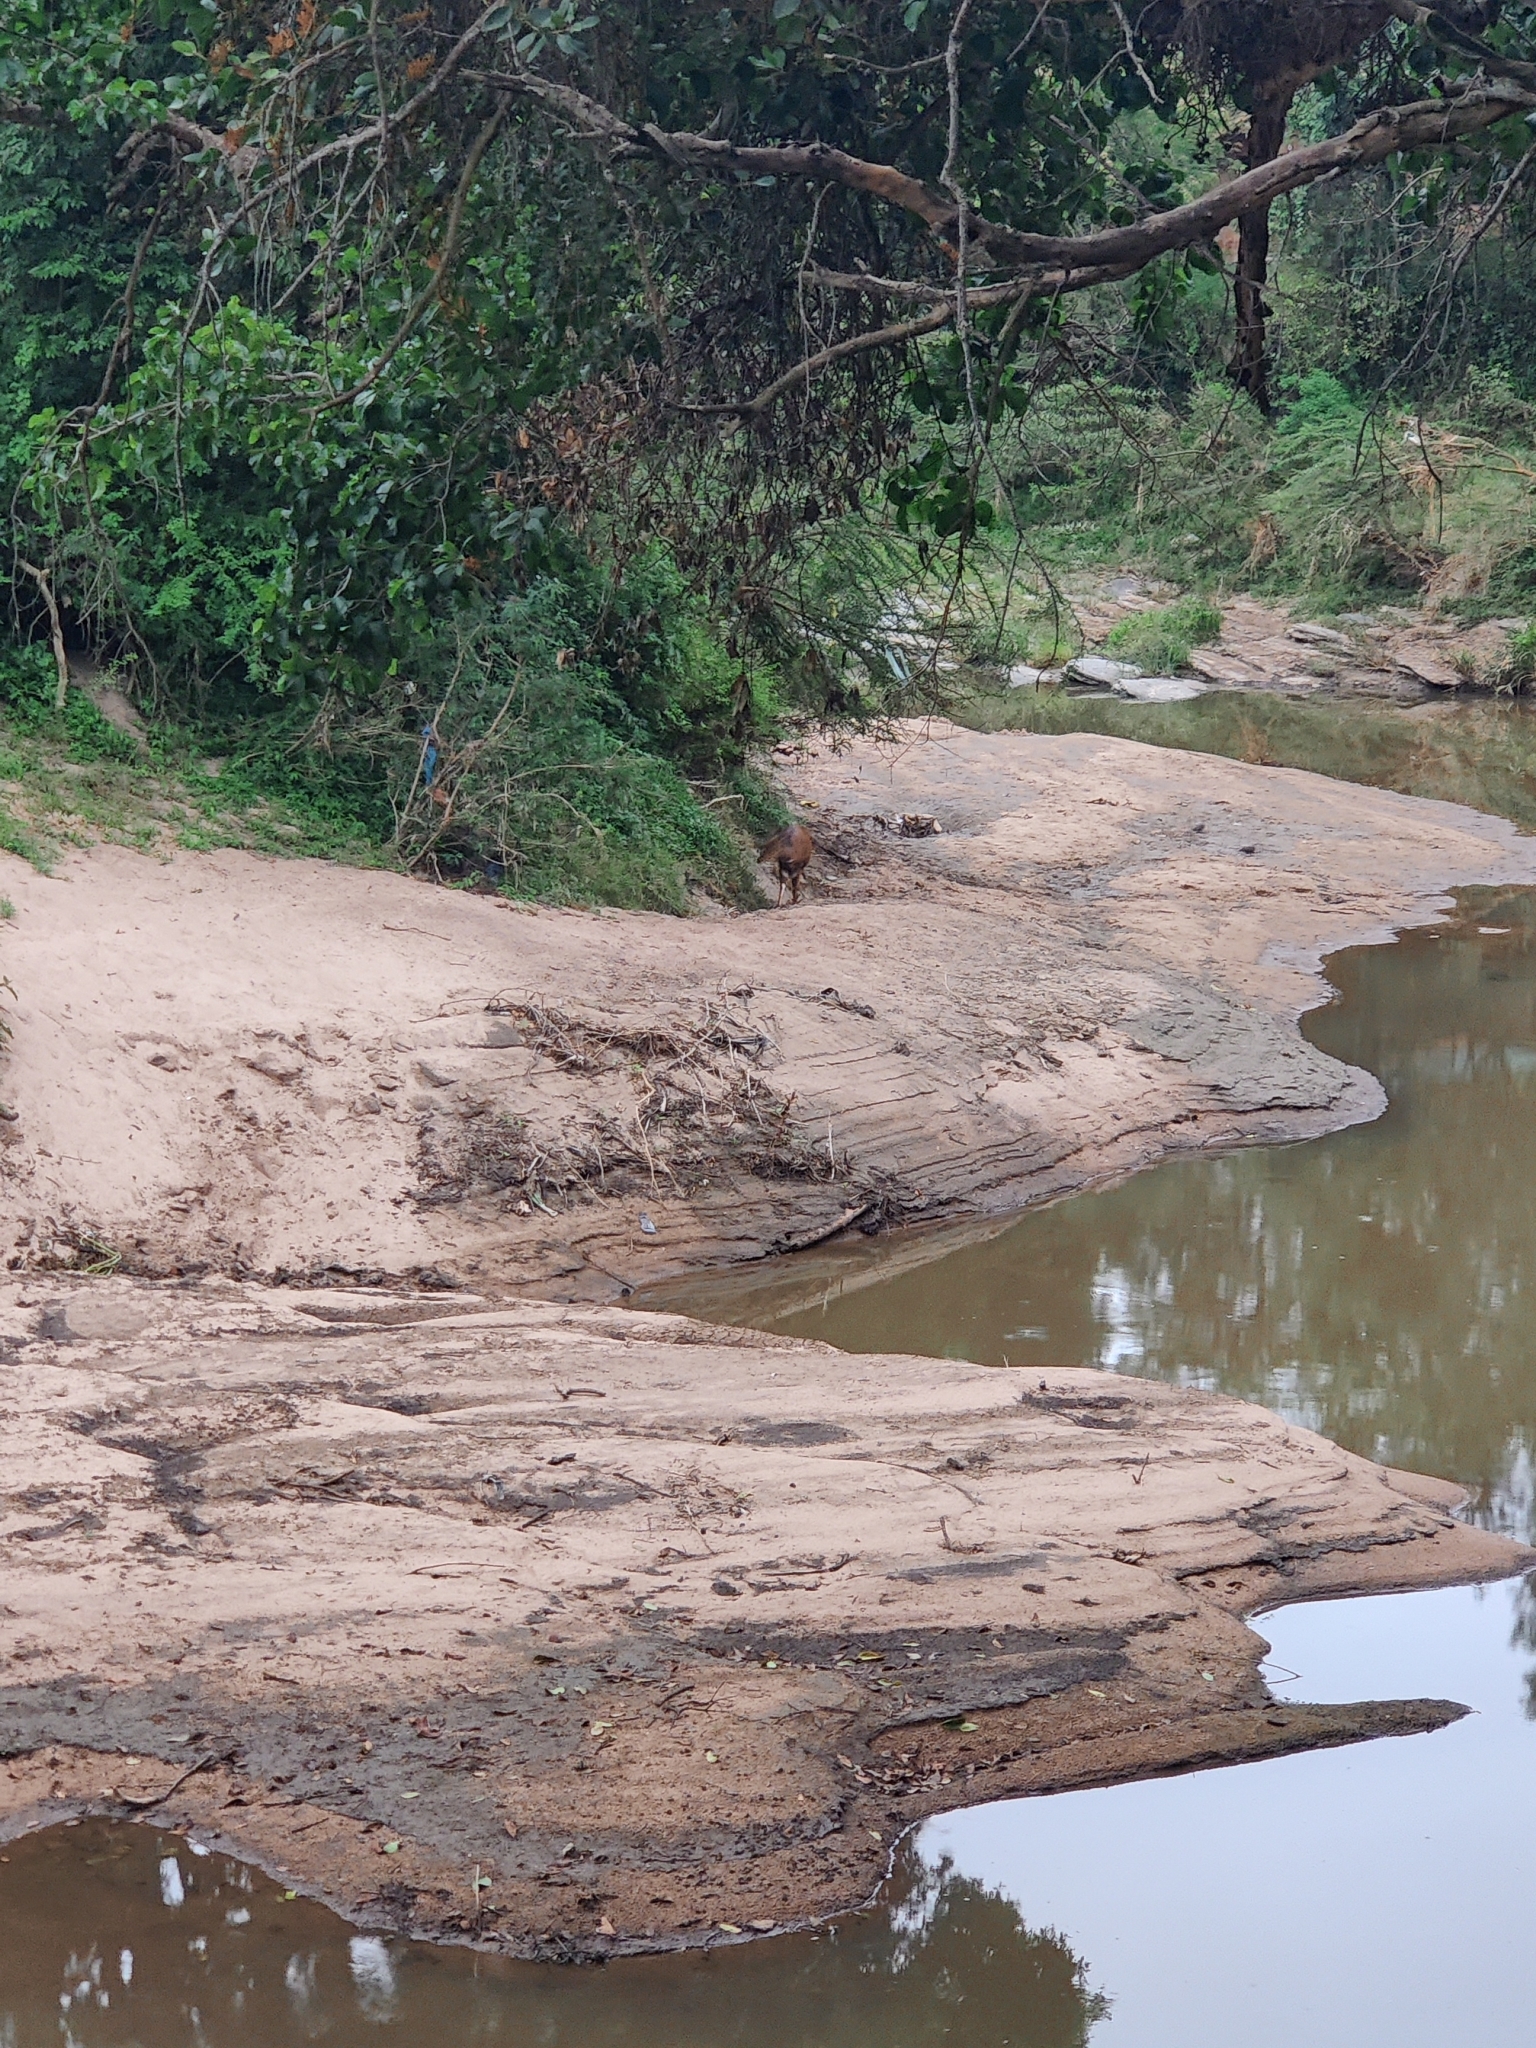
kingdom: Animalia
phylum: Chordata
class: Mammalia
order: Artiodactyla
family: Bovidae
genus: Tragelaphus
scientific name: Tragelaphus scriptus
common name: Bushbuck
